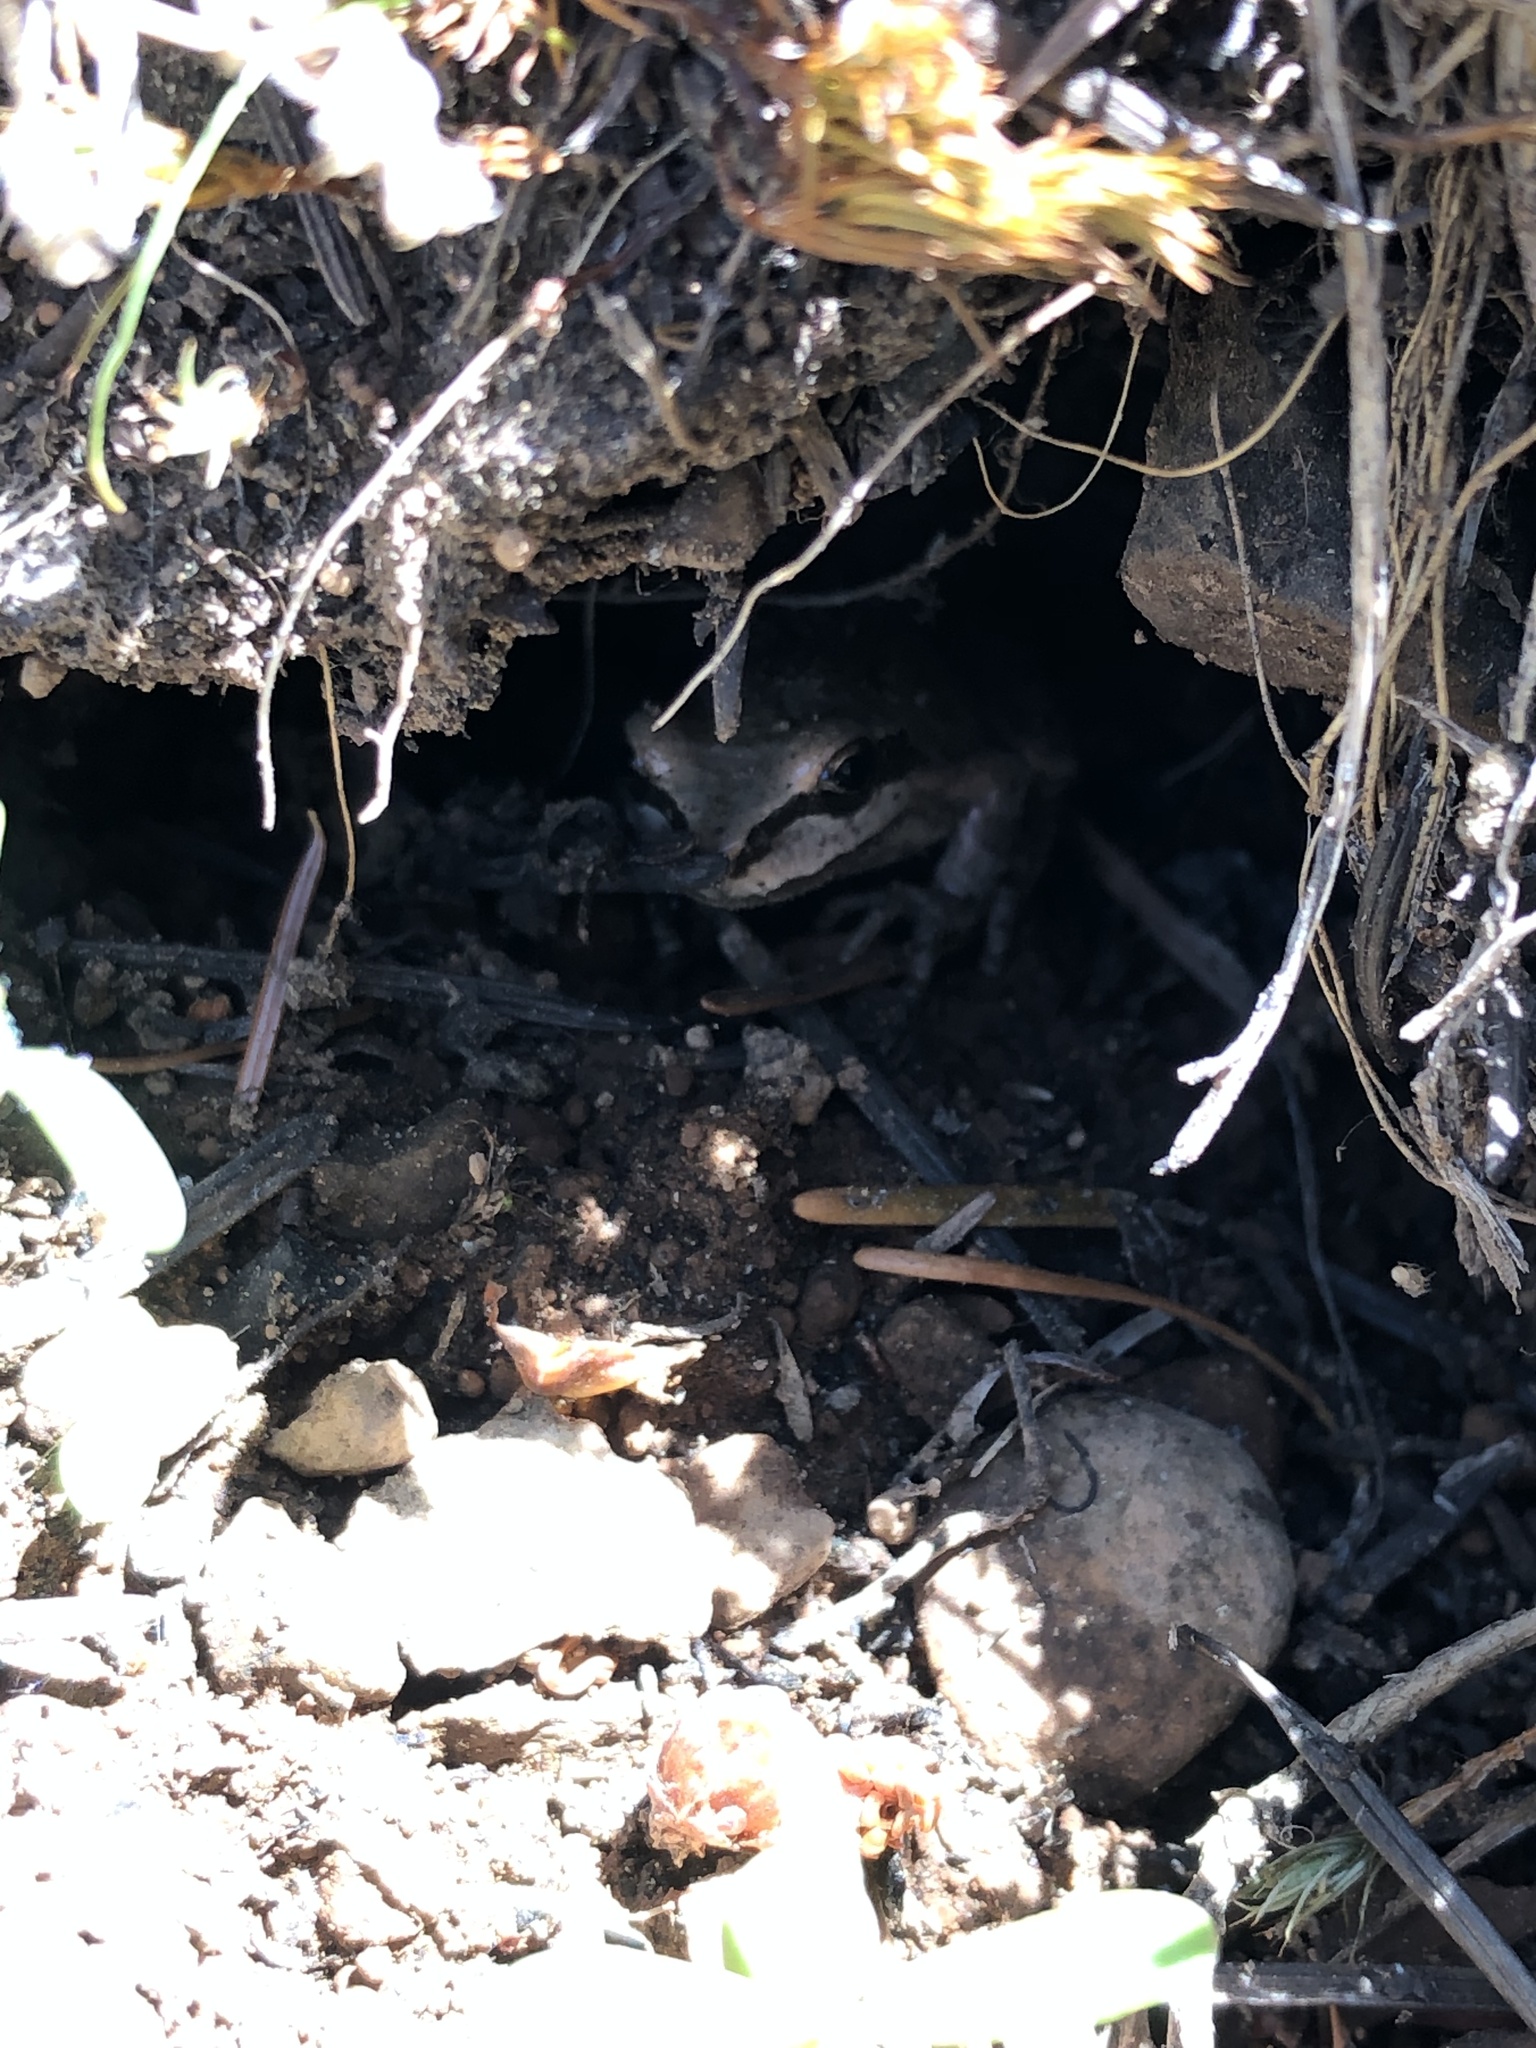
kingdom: Animalia
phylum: Chordata
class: Amphibia
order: Anura
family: Hylidae
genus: Pseudacris
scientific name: Pseudacris regilla
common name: Pacific chorus frog
